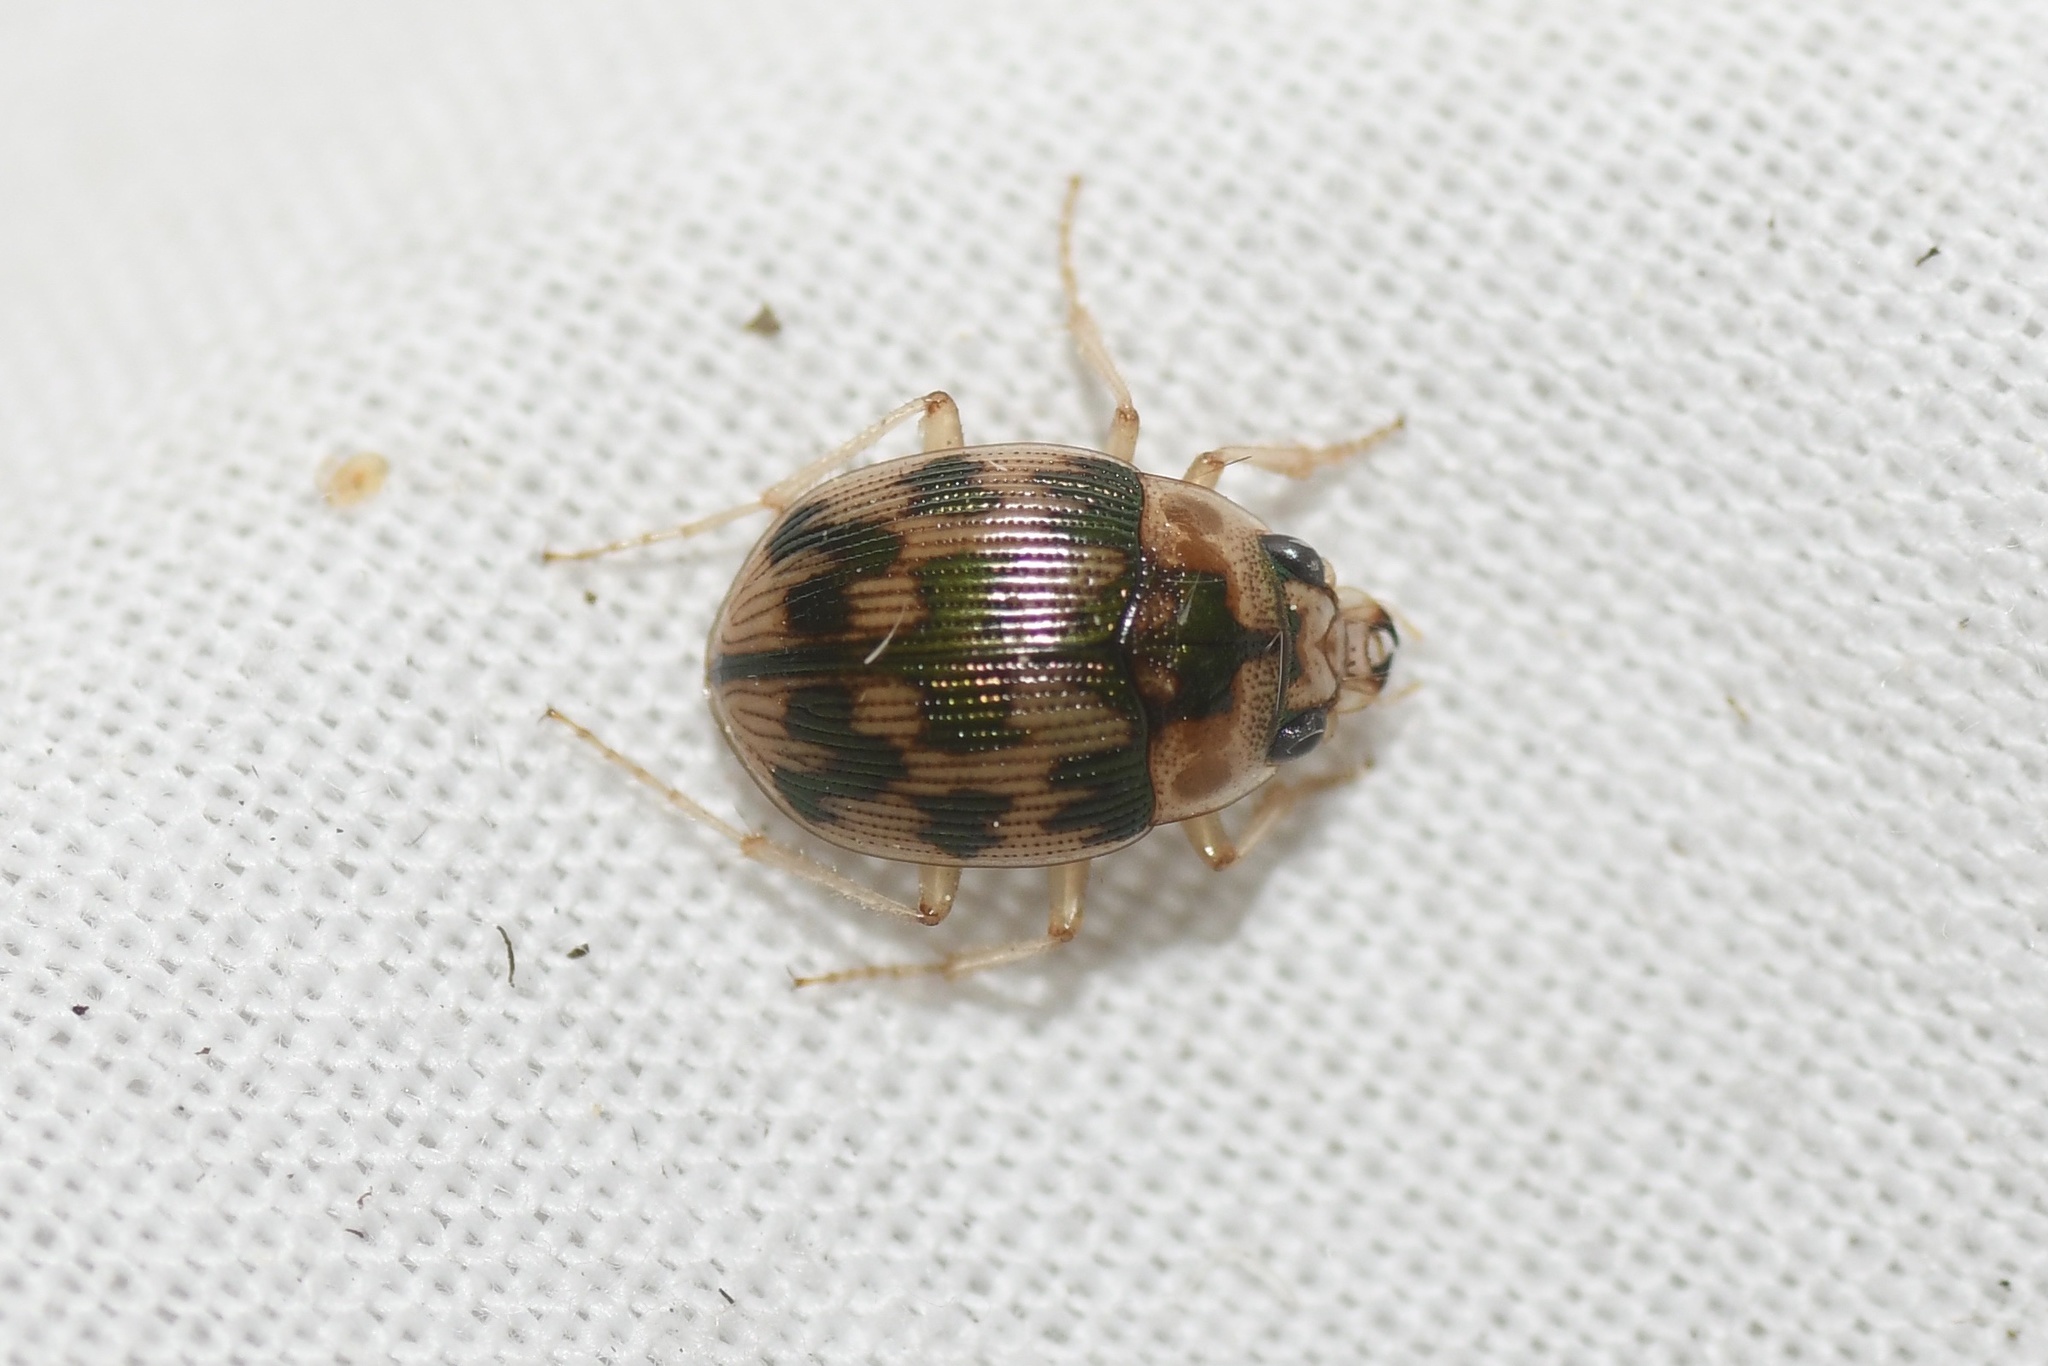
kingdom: Animalia
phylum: Arthropoda
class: Insecta
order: Coleoptera
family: Carabidae
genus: Omophron
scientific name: Omophron tessellatum
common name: Mosaic round sand beetle
